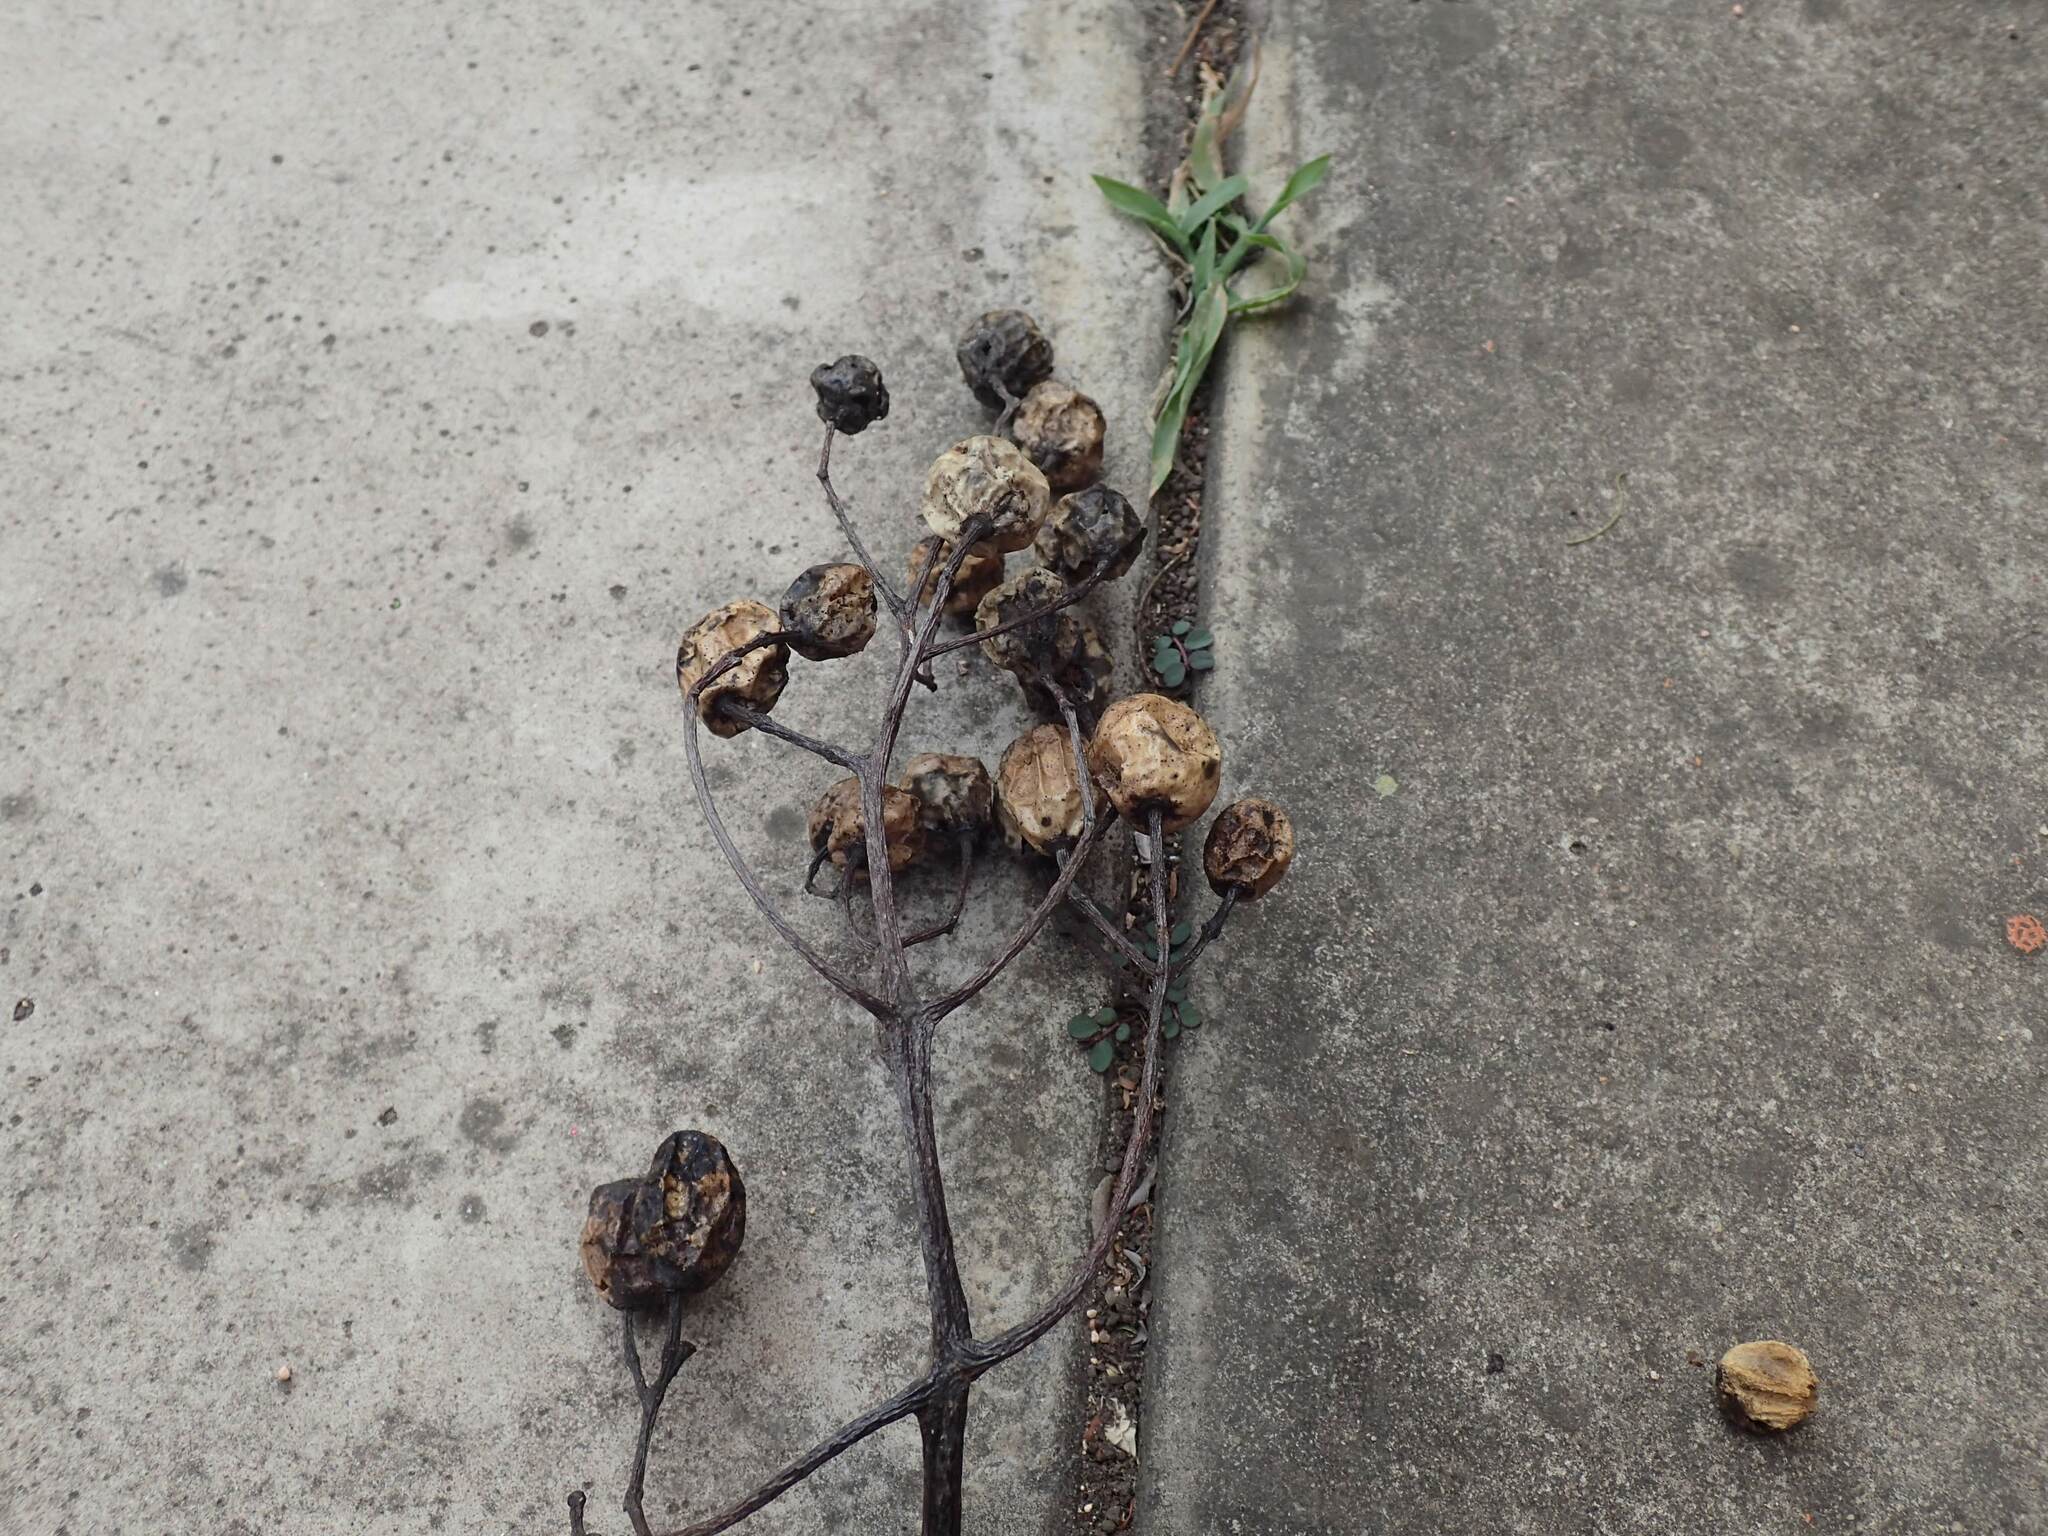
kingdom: Plantae
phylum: Tracheophyta
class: Magnoliopsida
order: Sapindales
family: Meliaceae
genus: Melia
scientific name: Melia azedarach
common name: Chinaberrytree
